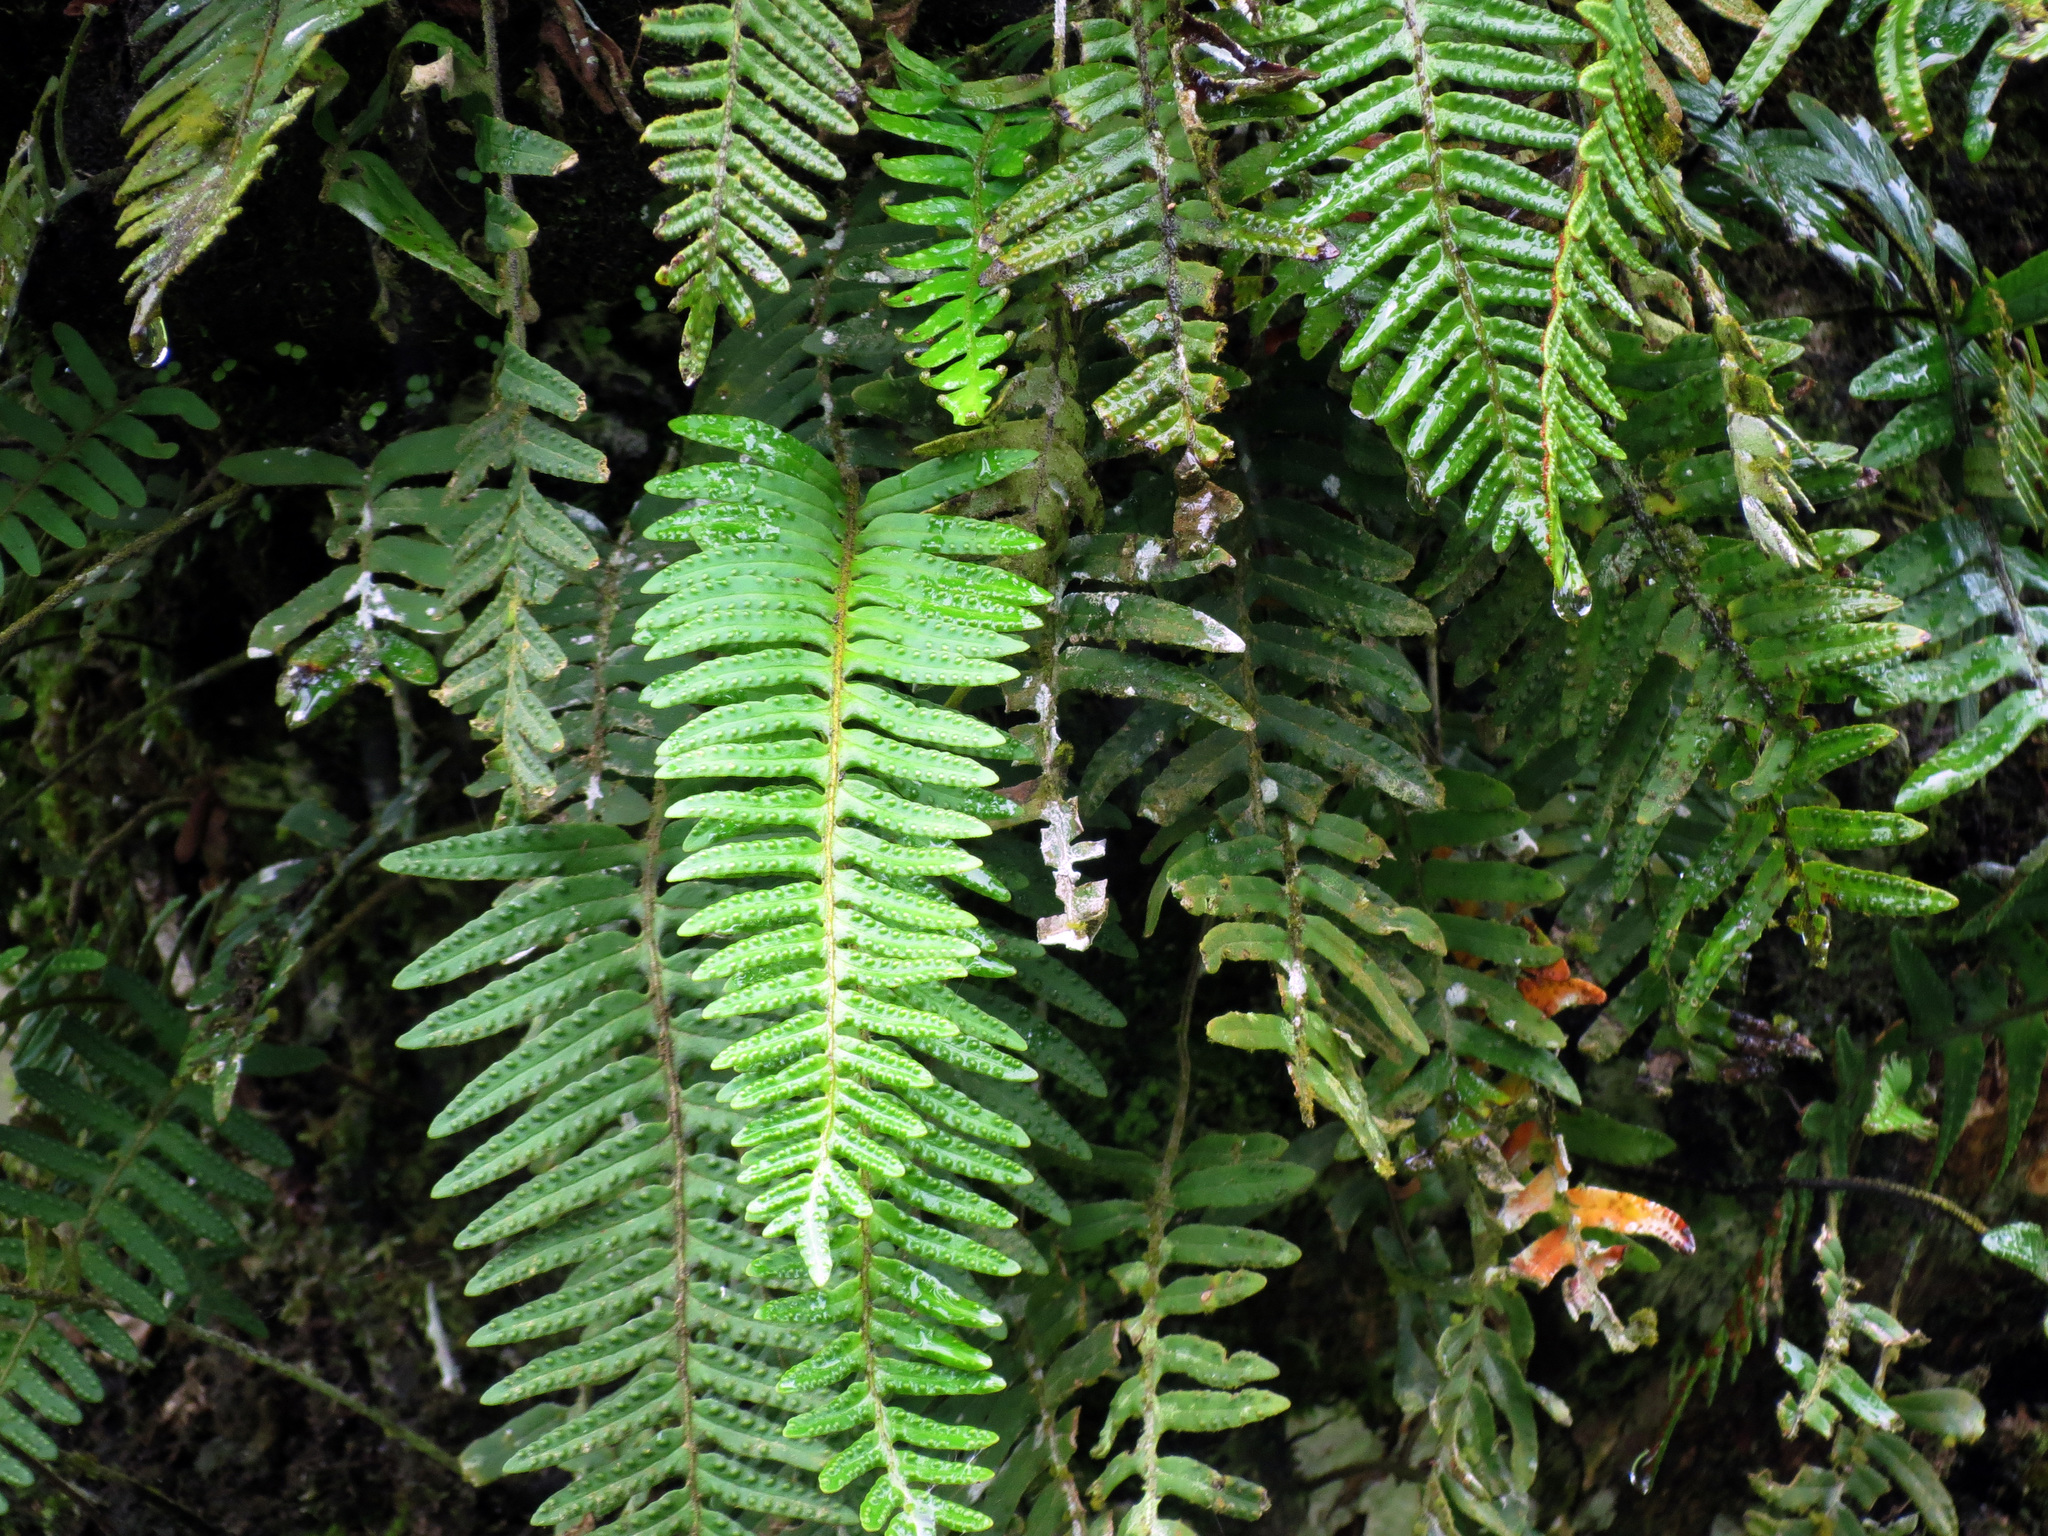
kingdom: Plantae
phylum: Tracheophyta
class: Polypodiopsida
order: Polypodiales
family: Polypodiaceae
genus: Pleopeltis
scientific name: Pleopeltis polypodioides
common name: Resurrection fern
